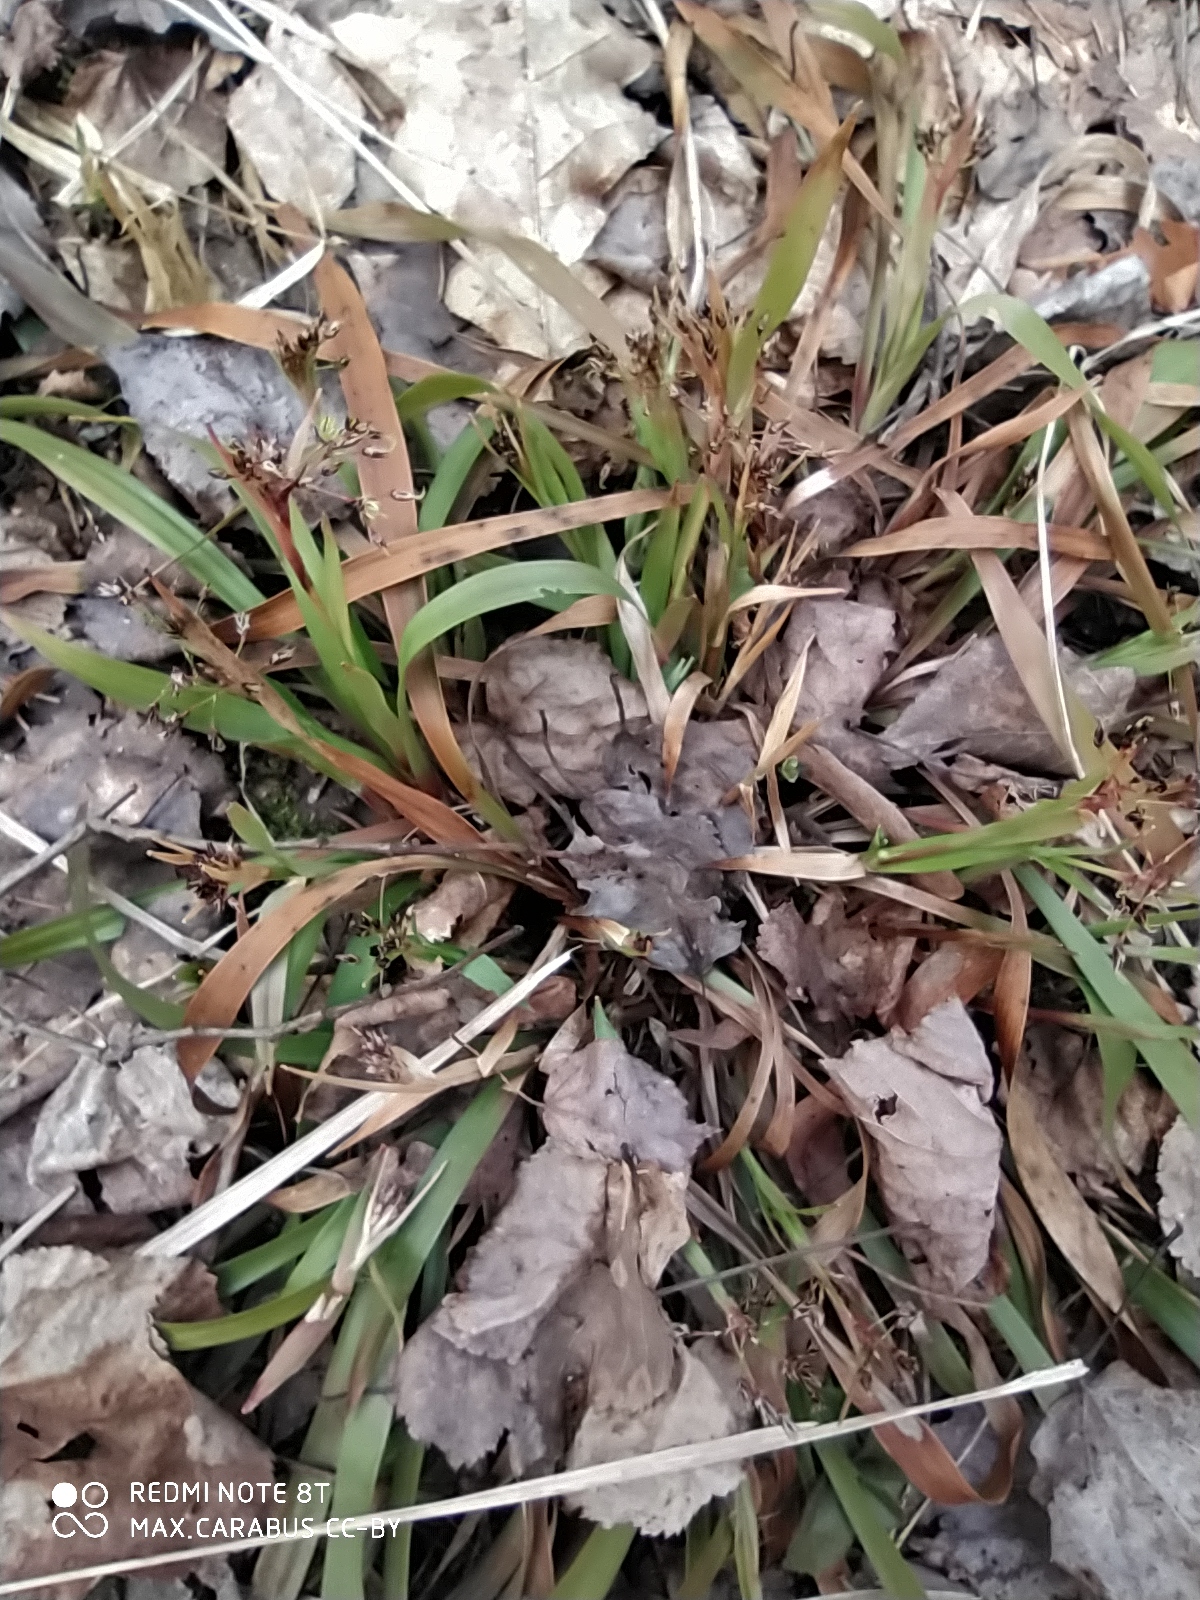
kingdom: Plantae
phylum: Tracheophyta
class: Liliopsida
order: Poales
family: Juncaceae
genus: Luzula
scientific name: Luzula pilosa
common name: Hairy wood-rush
